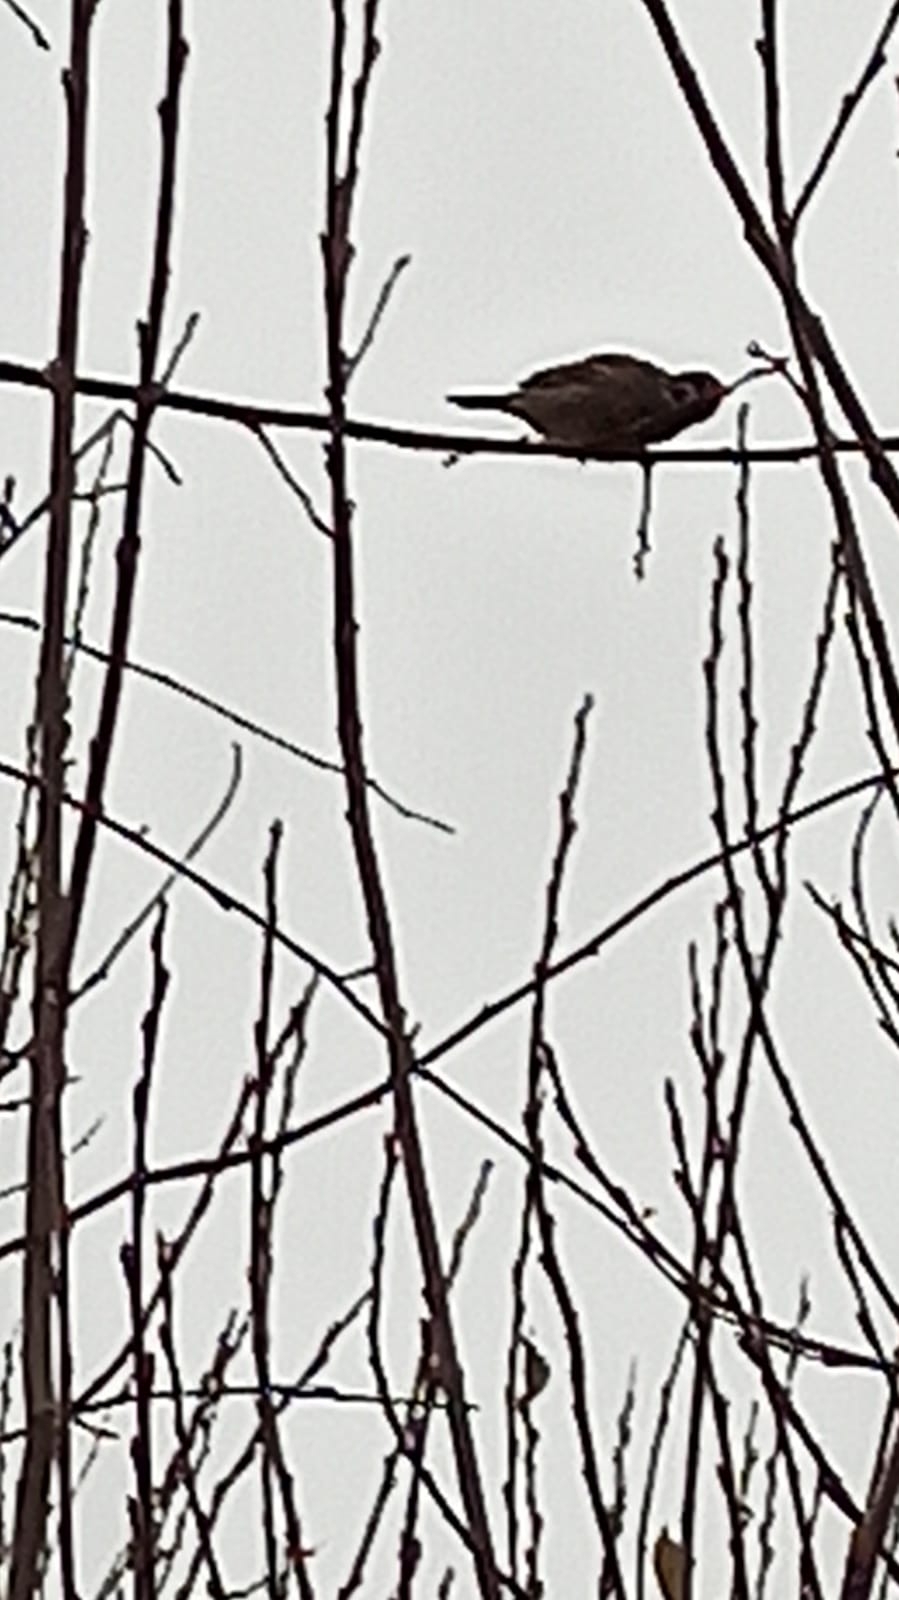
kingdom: Animalia
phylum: Chordata
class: Aves
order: Passeriformes
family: Passeridae
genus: Passer
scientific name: Passer montanus
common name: Eurasian tree sparrow
